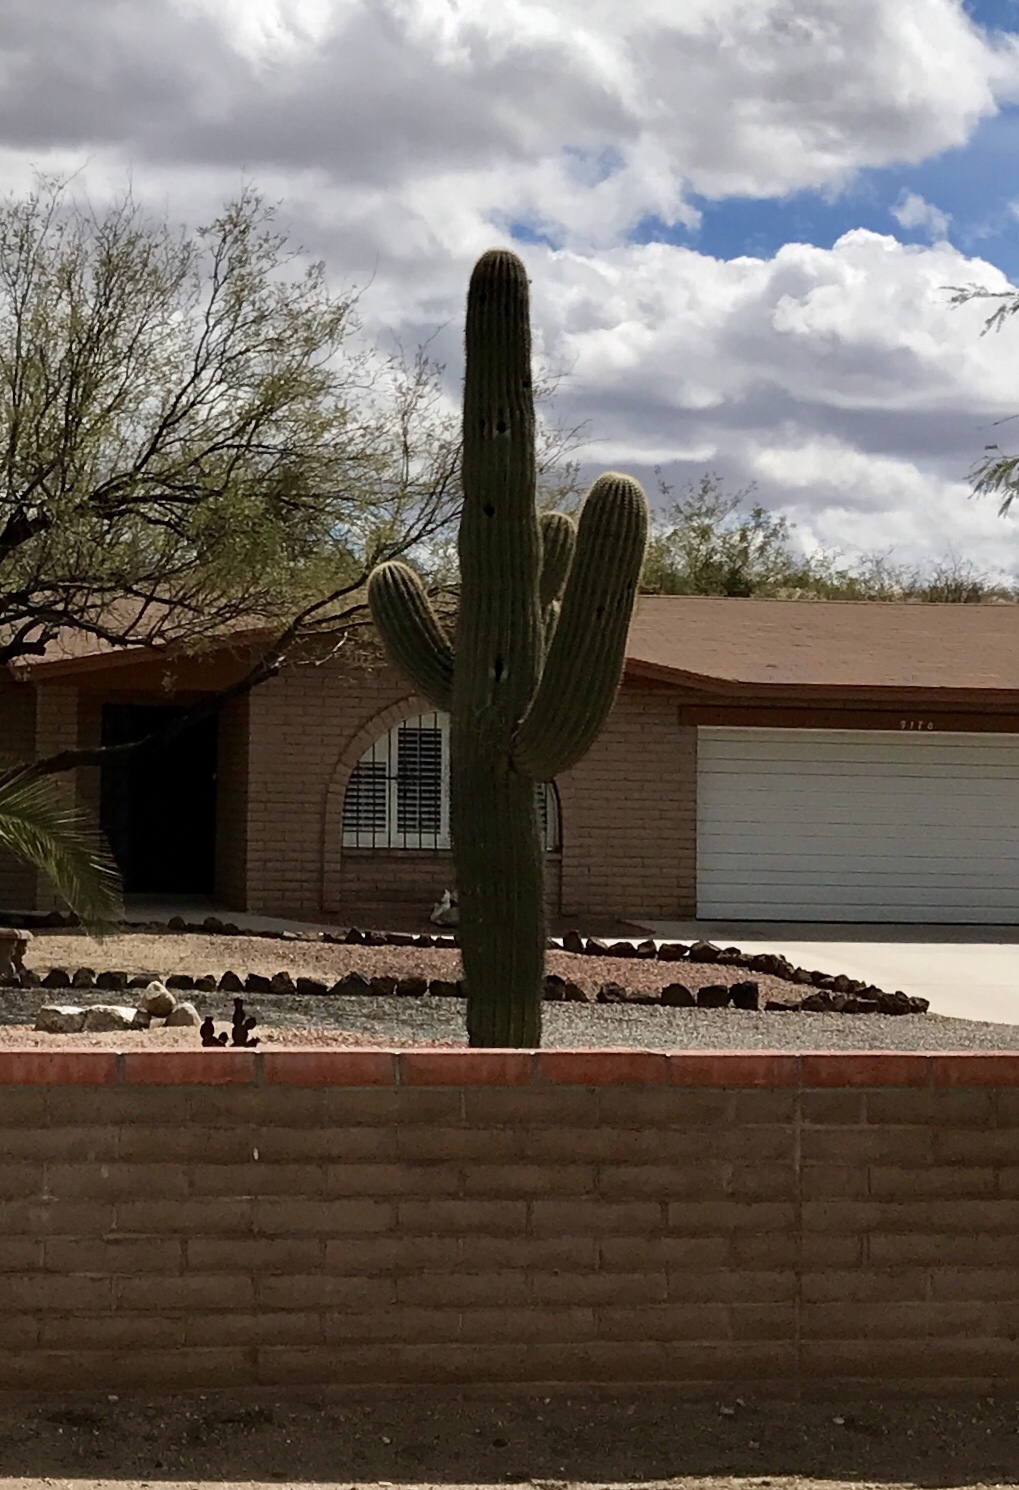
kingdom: Plantae
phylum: Tracheophyta
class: Magnoliopsida
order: Caryophyllales
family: Cactaceae
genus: Carnegiea
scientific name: Carnegiea gigantea
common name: Saguaro
